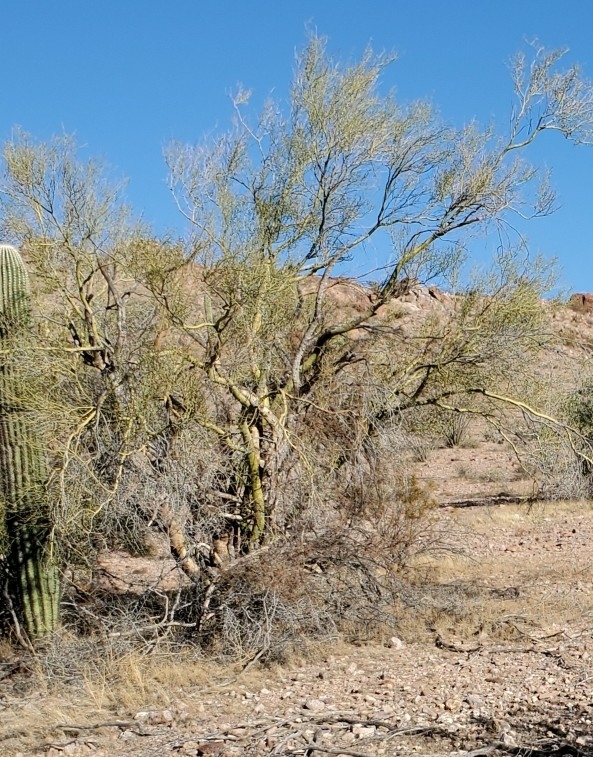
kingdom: Plantae
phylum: Tracheophyta
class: Magnoliopsida
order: Fabales
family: Fabaceae
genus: Parkinsonia
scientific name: Parkinsonia microphylla
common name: Yellow paloverde
